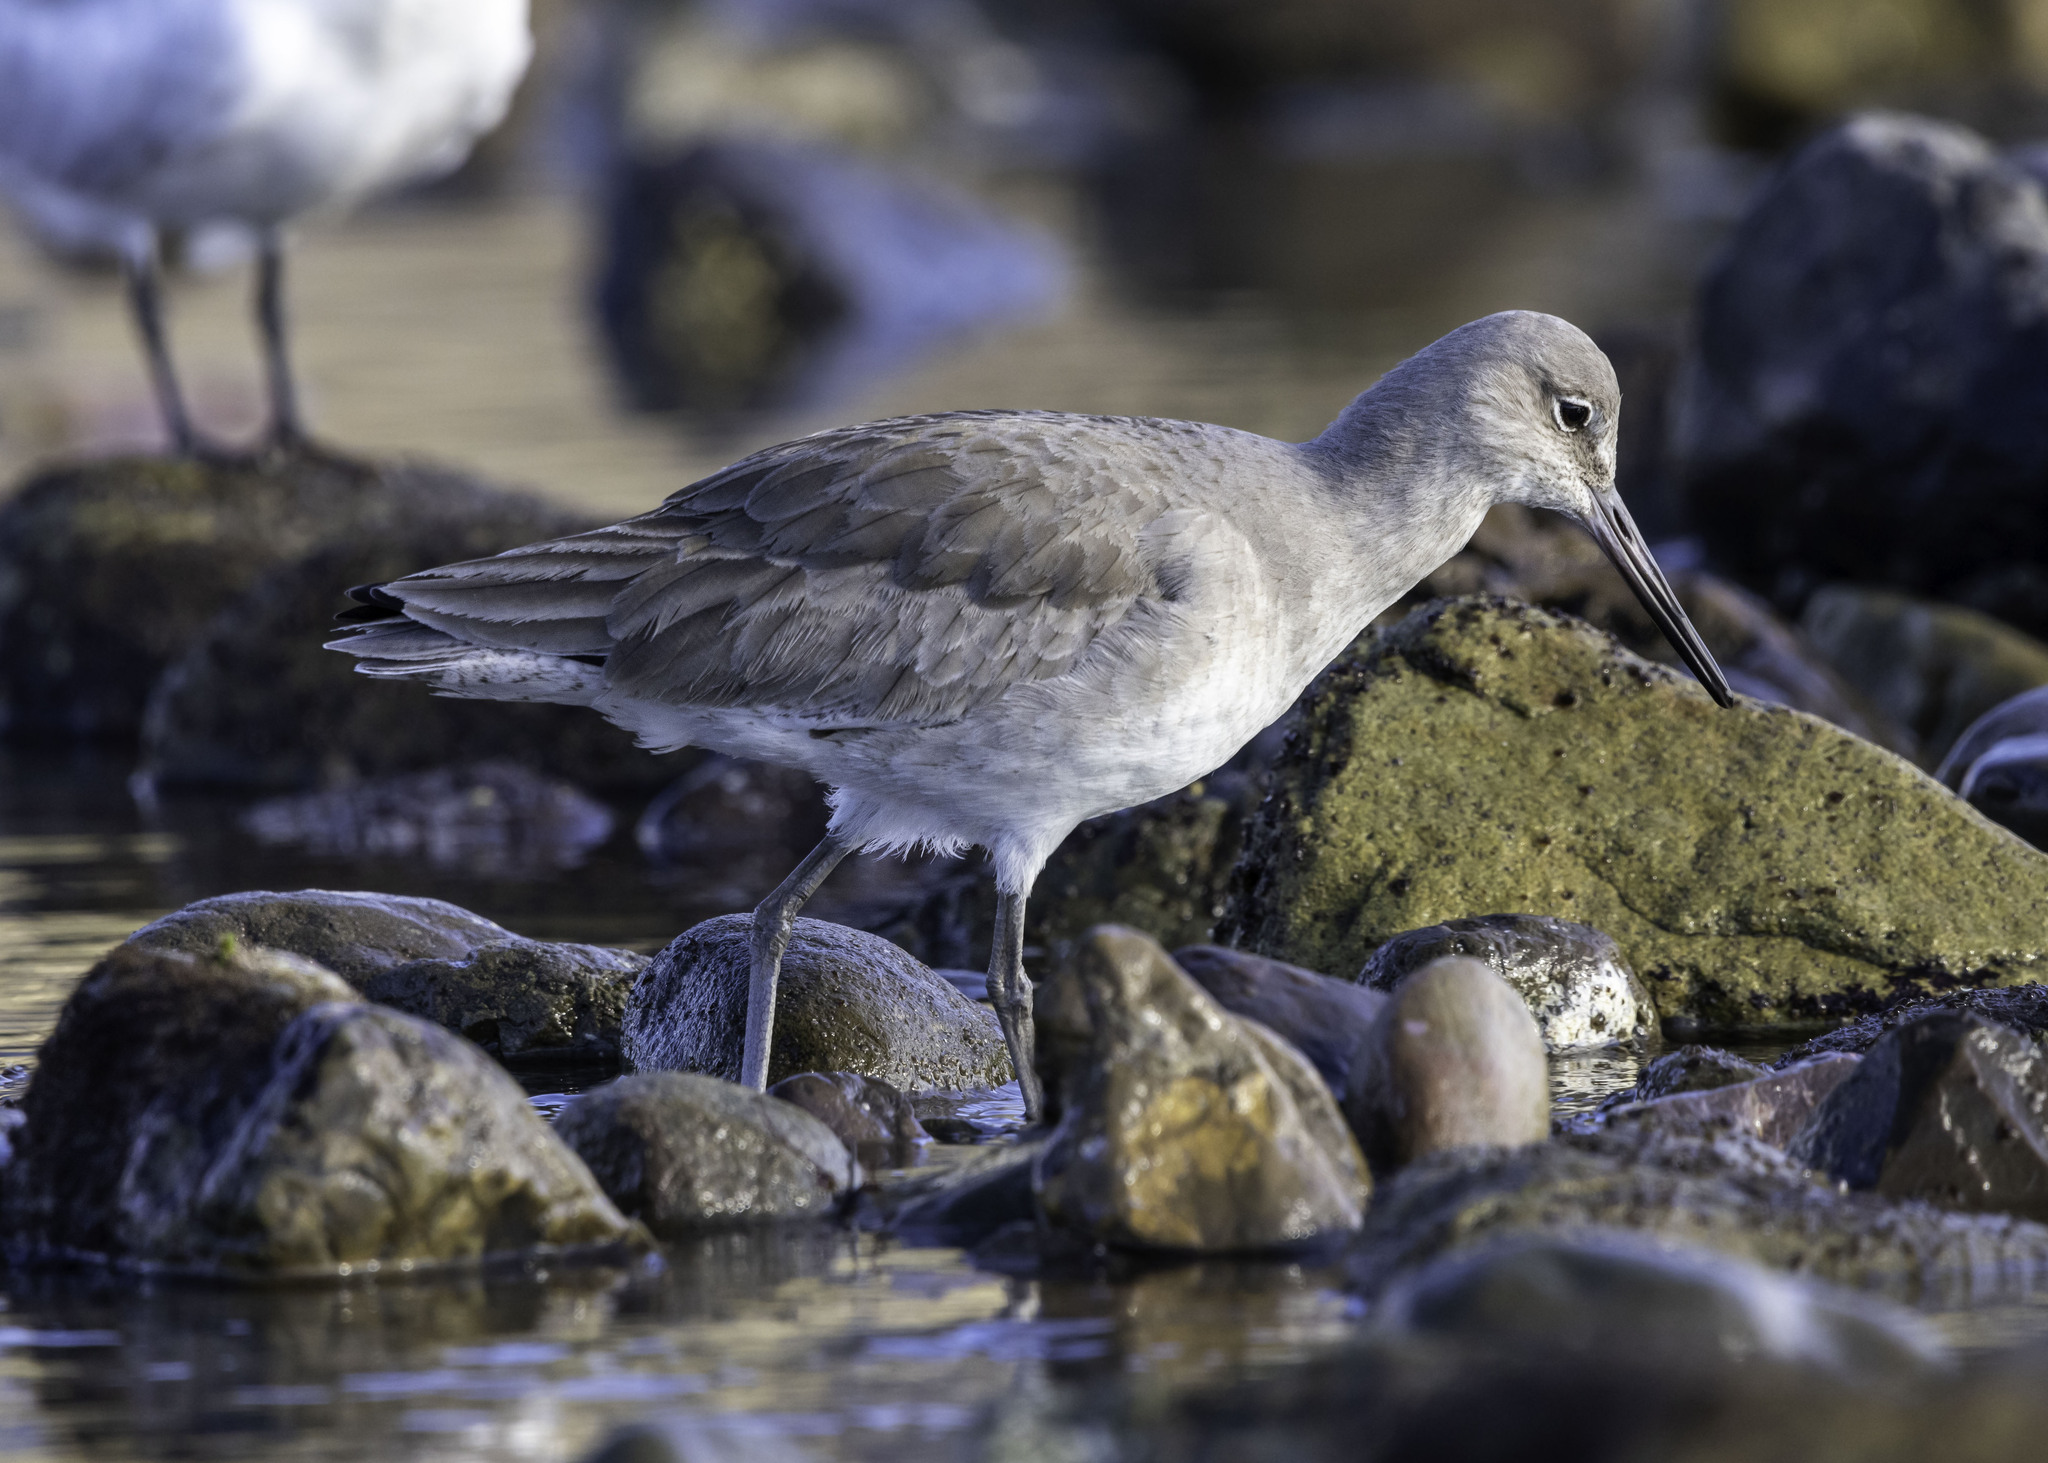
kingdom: Animalia
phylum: Chordata
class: Aves
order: Charadriiformes
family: Scolopacidae
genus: Tringa
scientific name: Tringa semipalmata
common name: Willet
